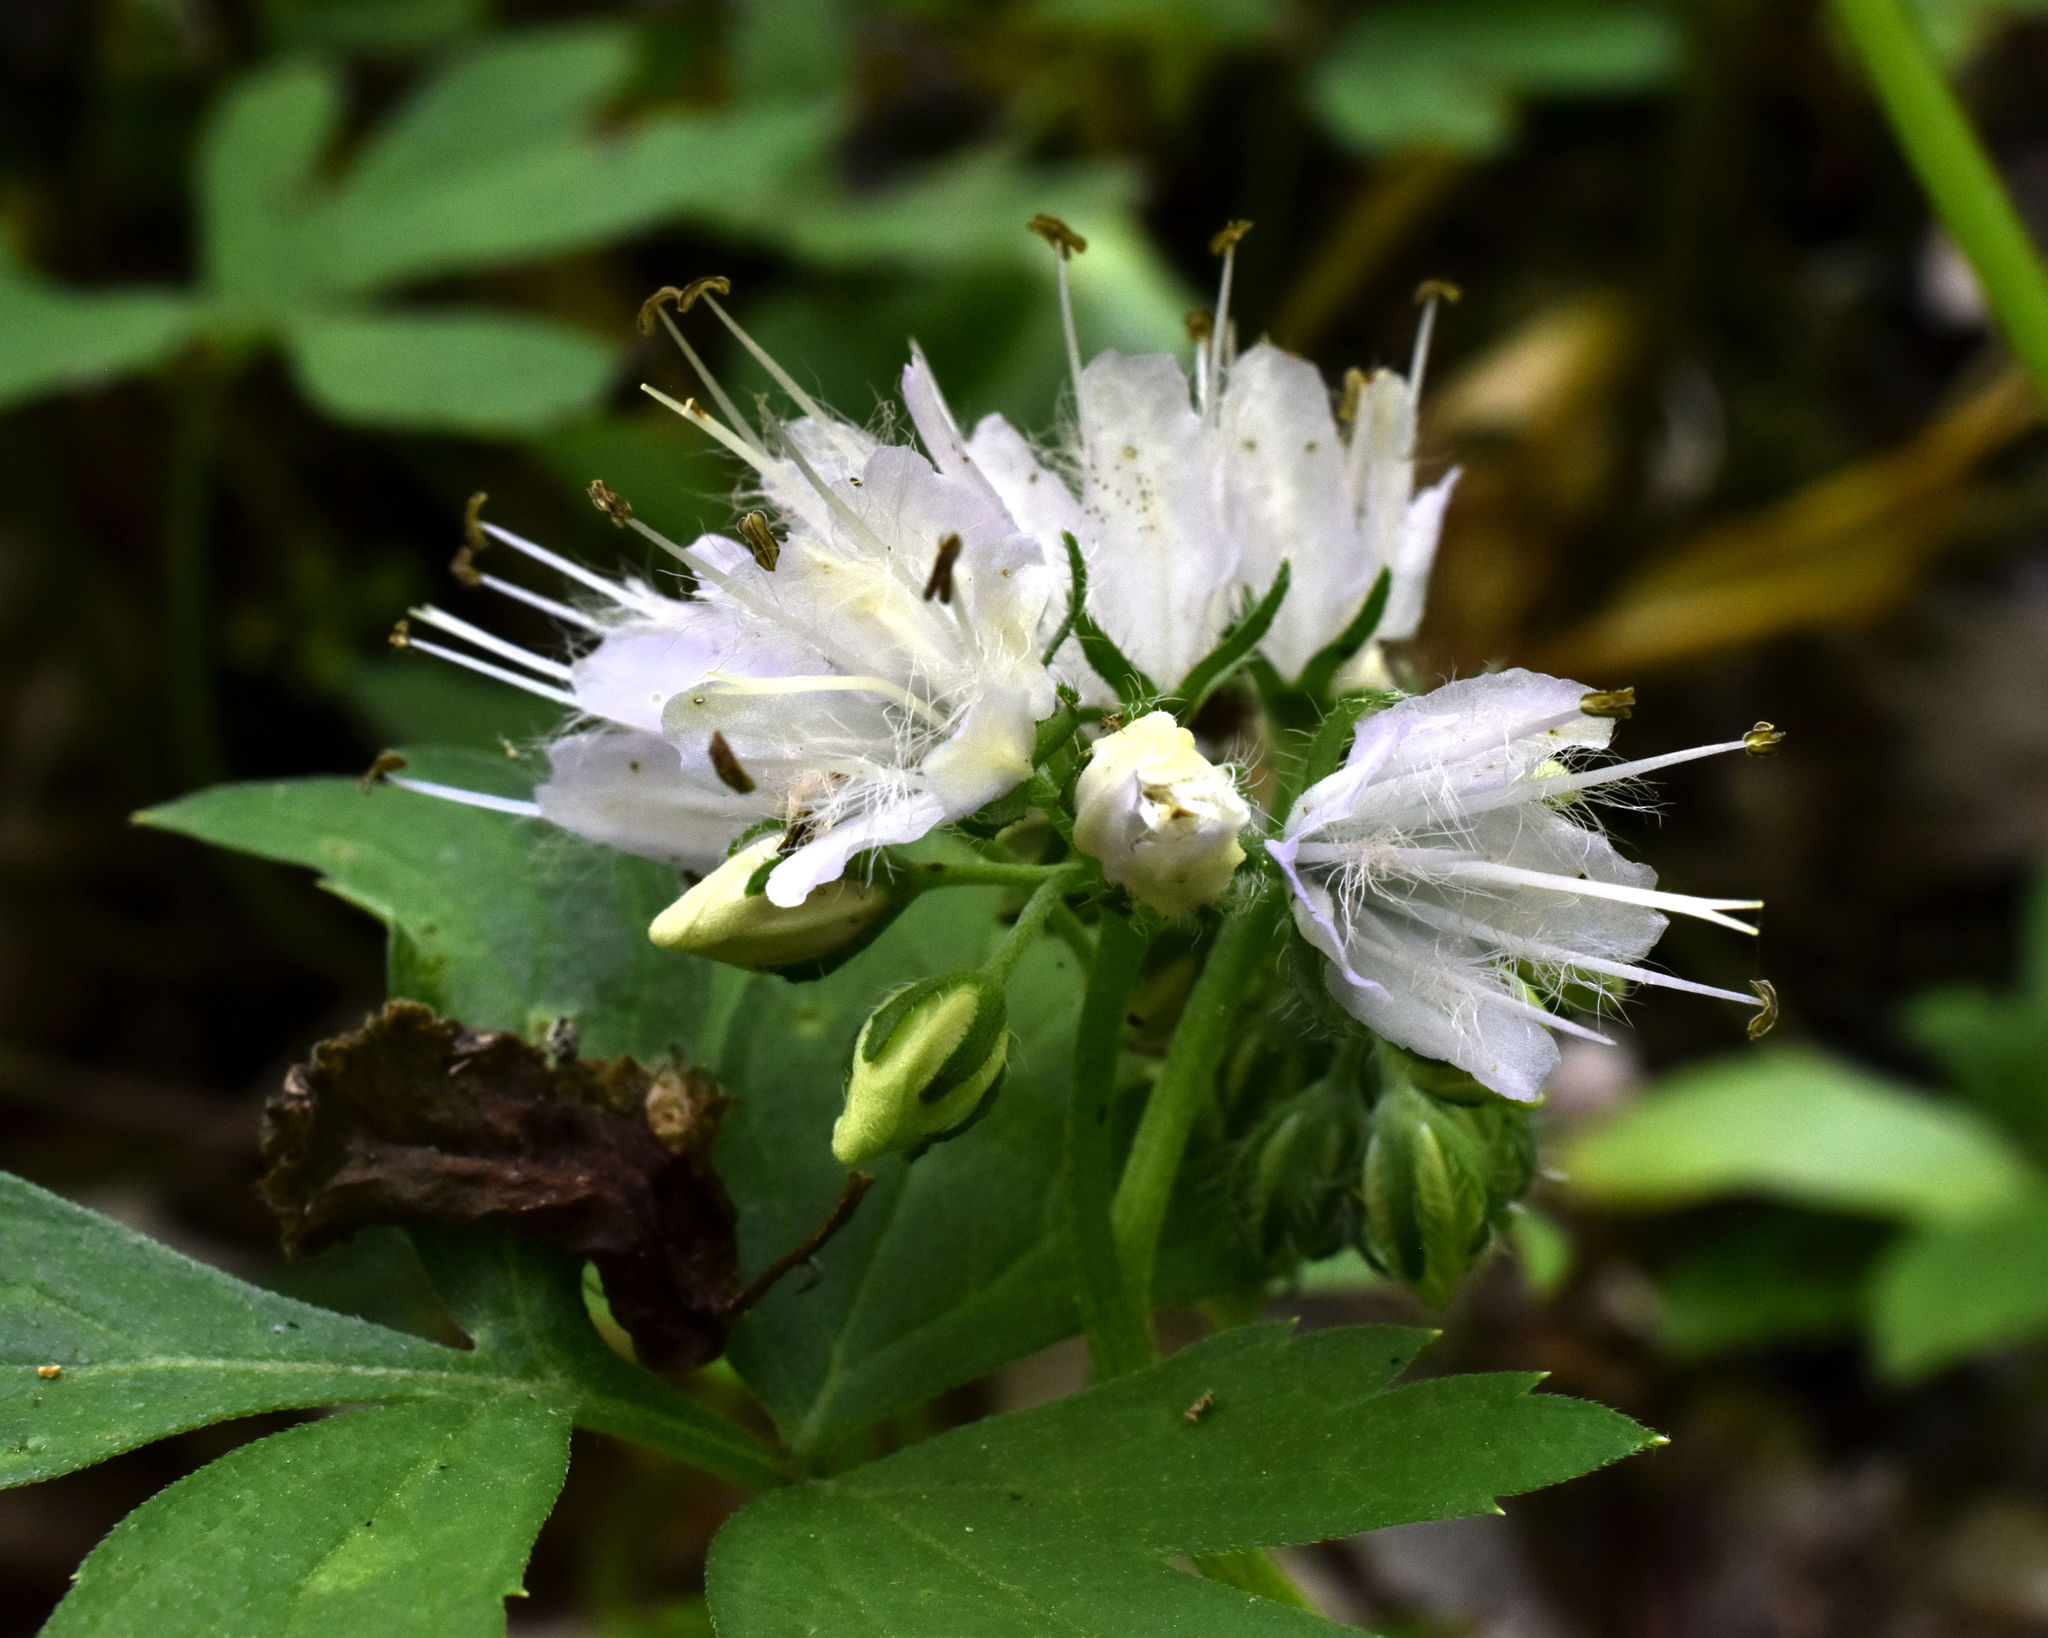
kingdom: Plantae
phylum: Tracheophyta
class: Magnoliopsida
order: Boraginales
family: Hydrophyllaceae
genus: Hydrophyllum
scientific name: Hydrophyllum virginianum
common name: Virginia waterleaf
